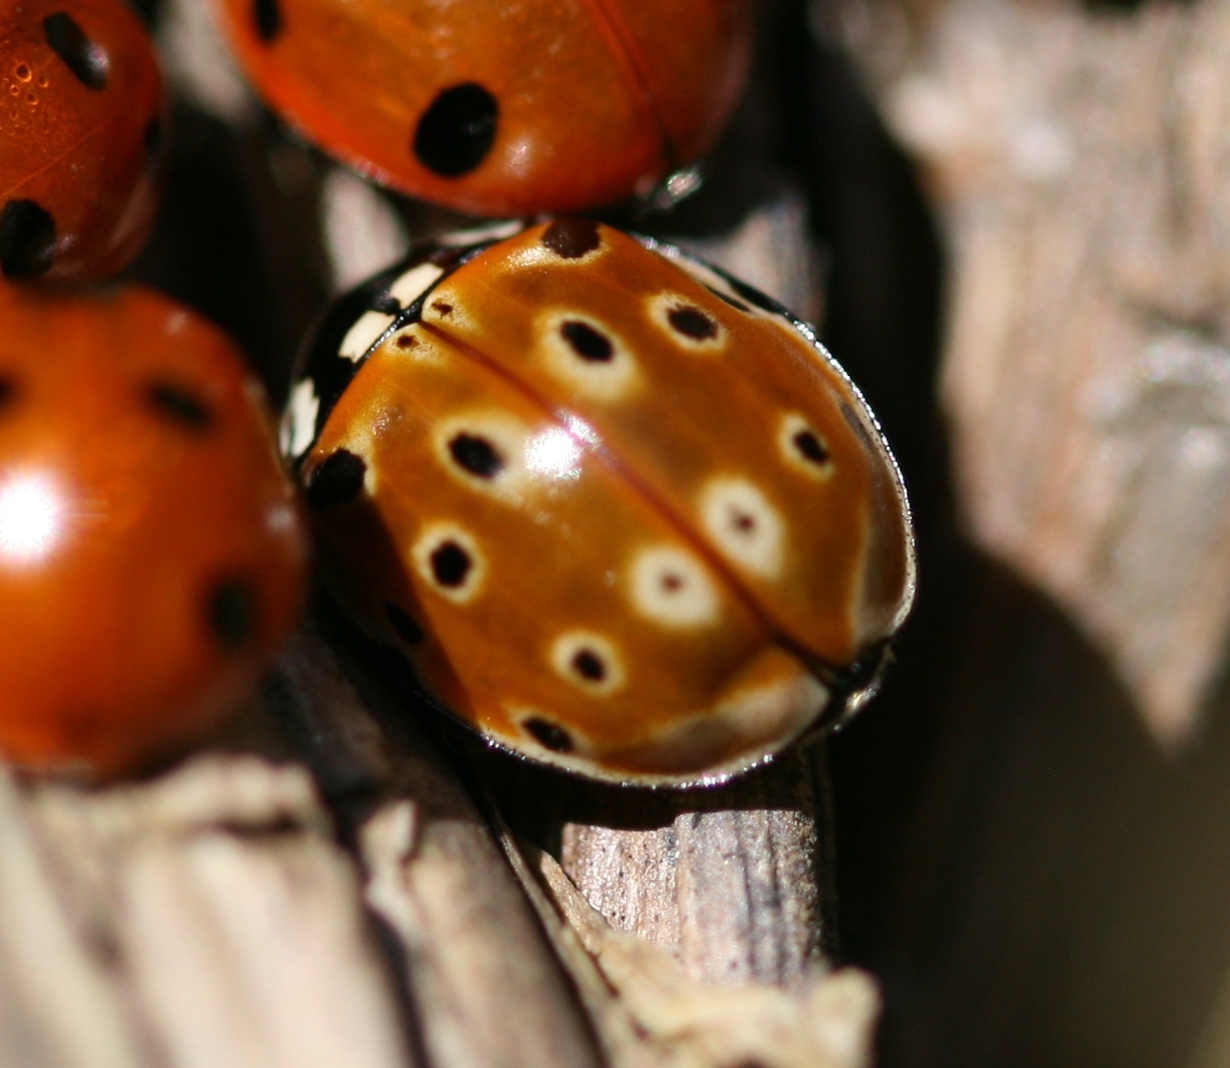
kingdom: Animalia
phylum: Arthropoda
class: Insecta
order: Coleoptera
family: Coccinellidae
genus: Anatis
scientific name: Anatis ocellata
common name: Eyed ladybird
